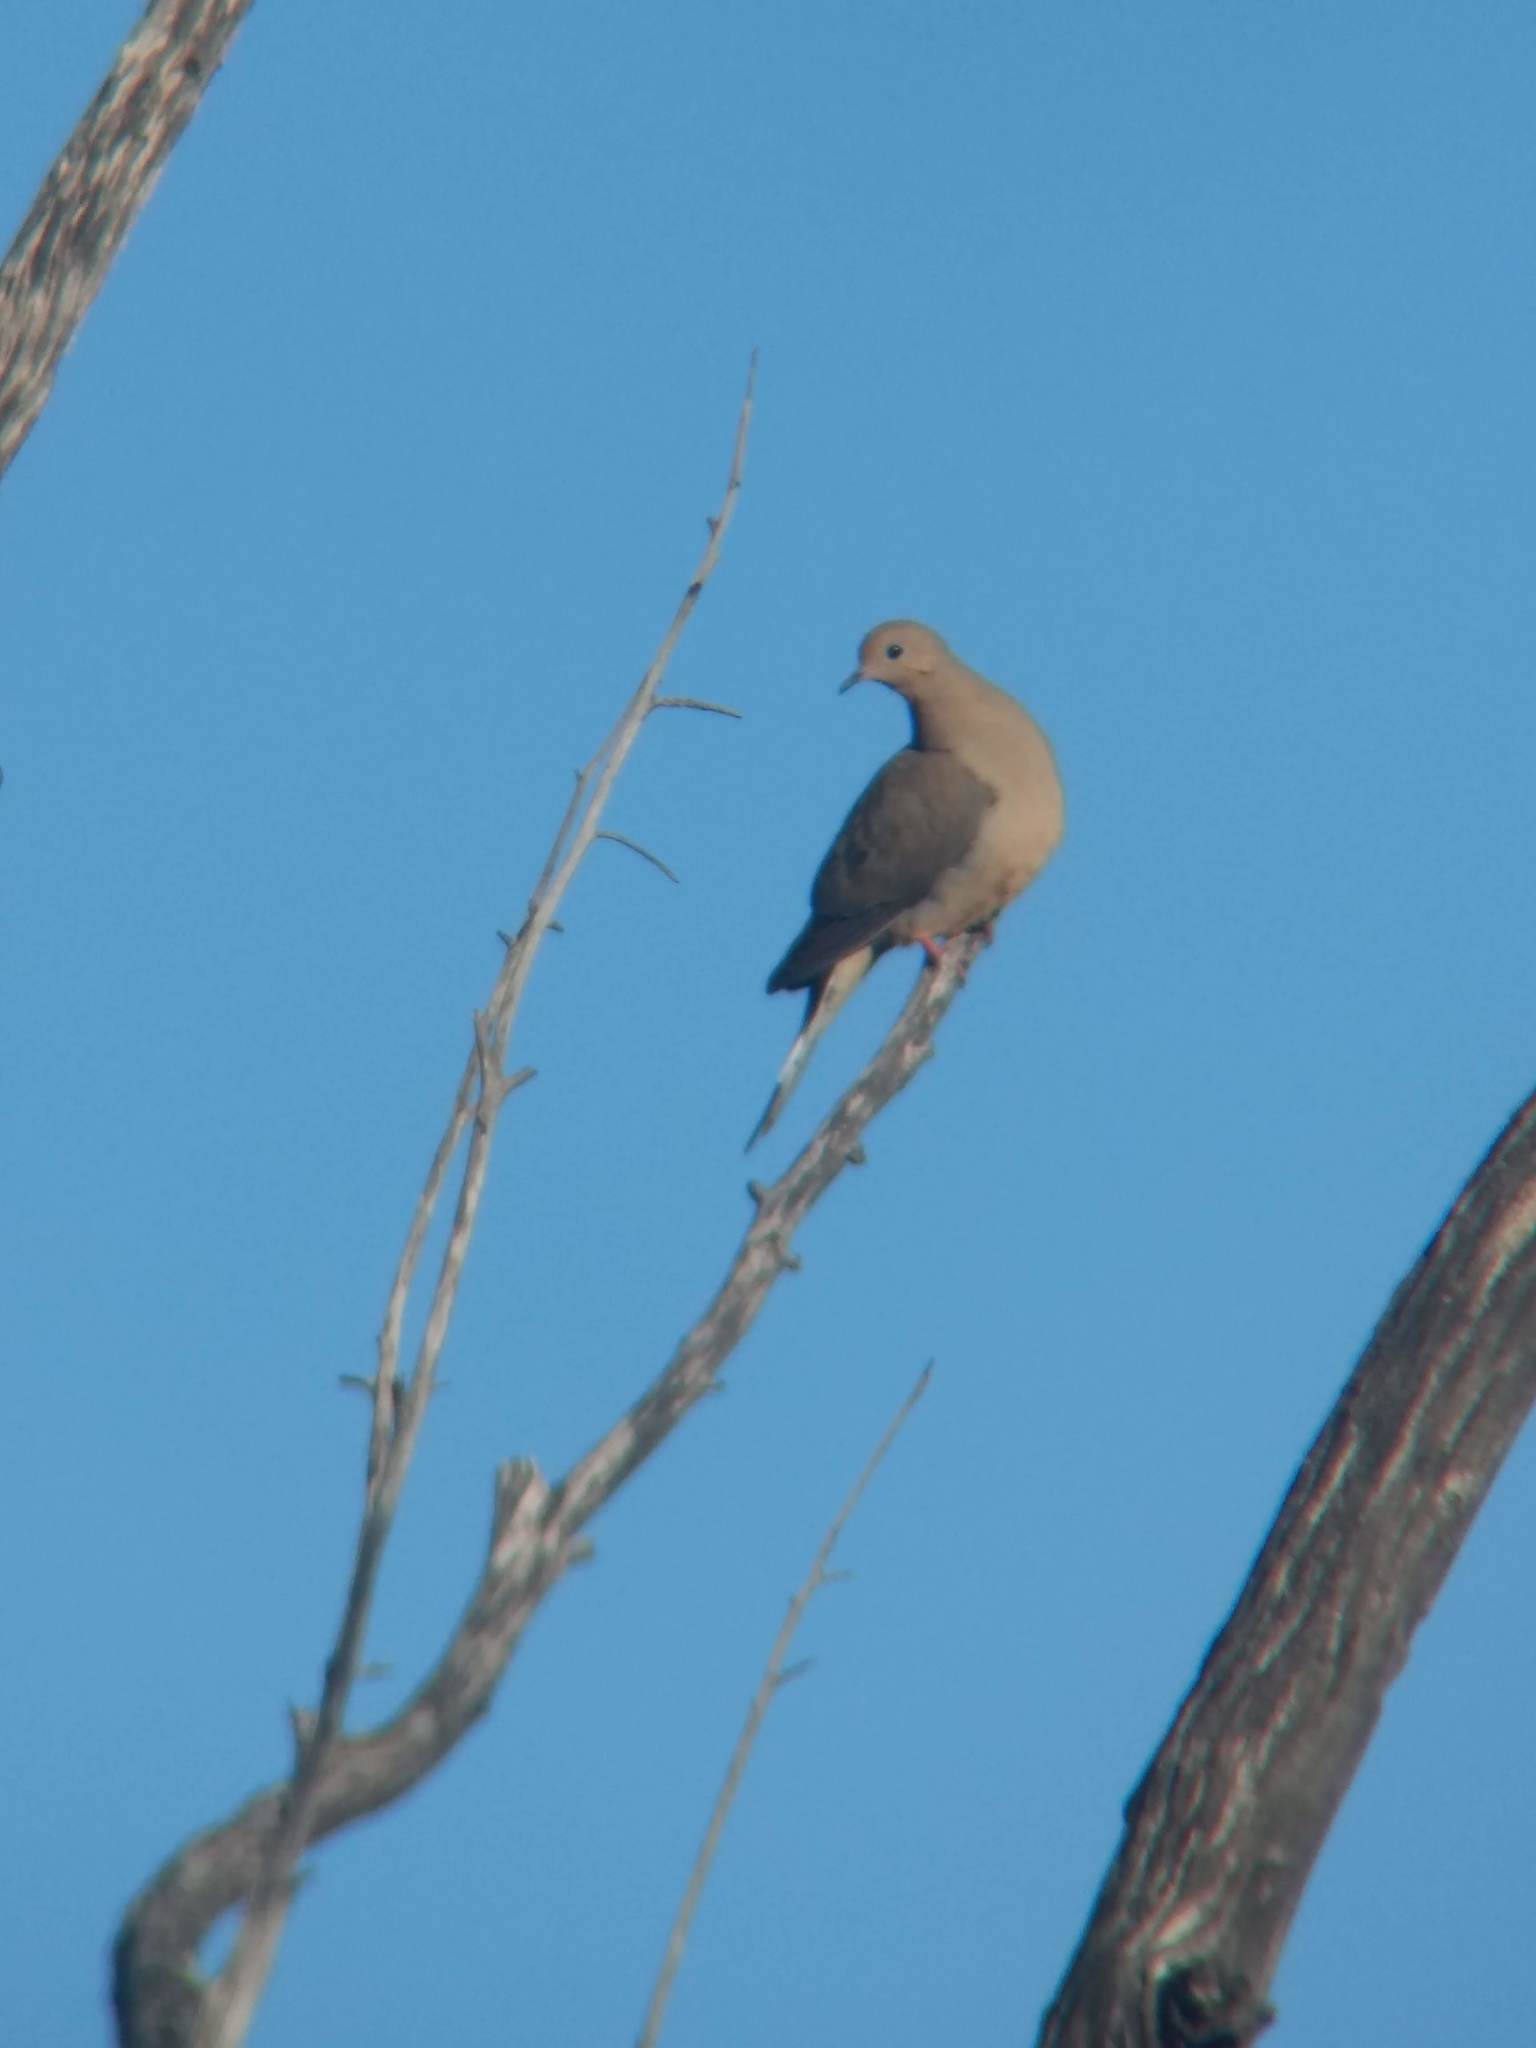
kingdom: Animalia
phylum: Chordata
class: Aves
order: Columbiformes
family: Columbidae
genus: Zenaida
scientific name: Zenaida macroura
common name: Mourning dove
